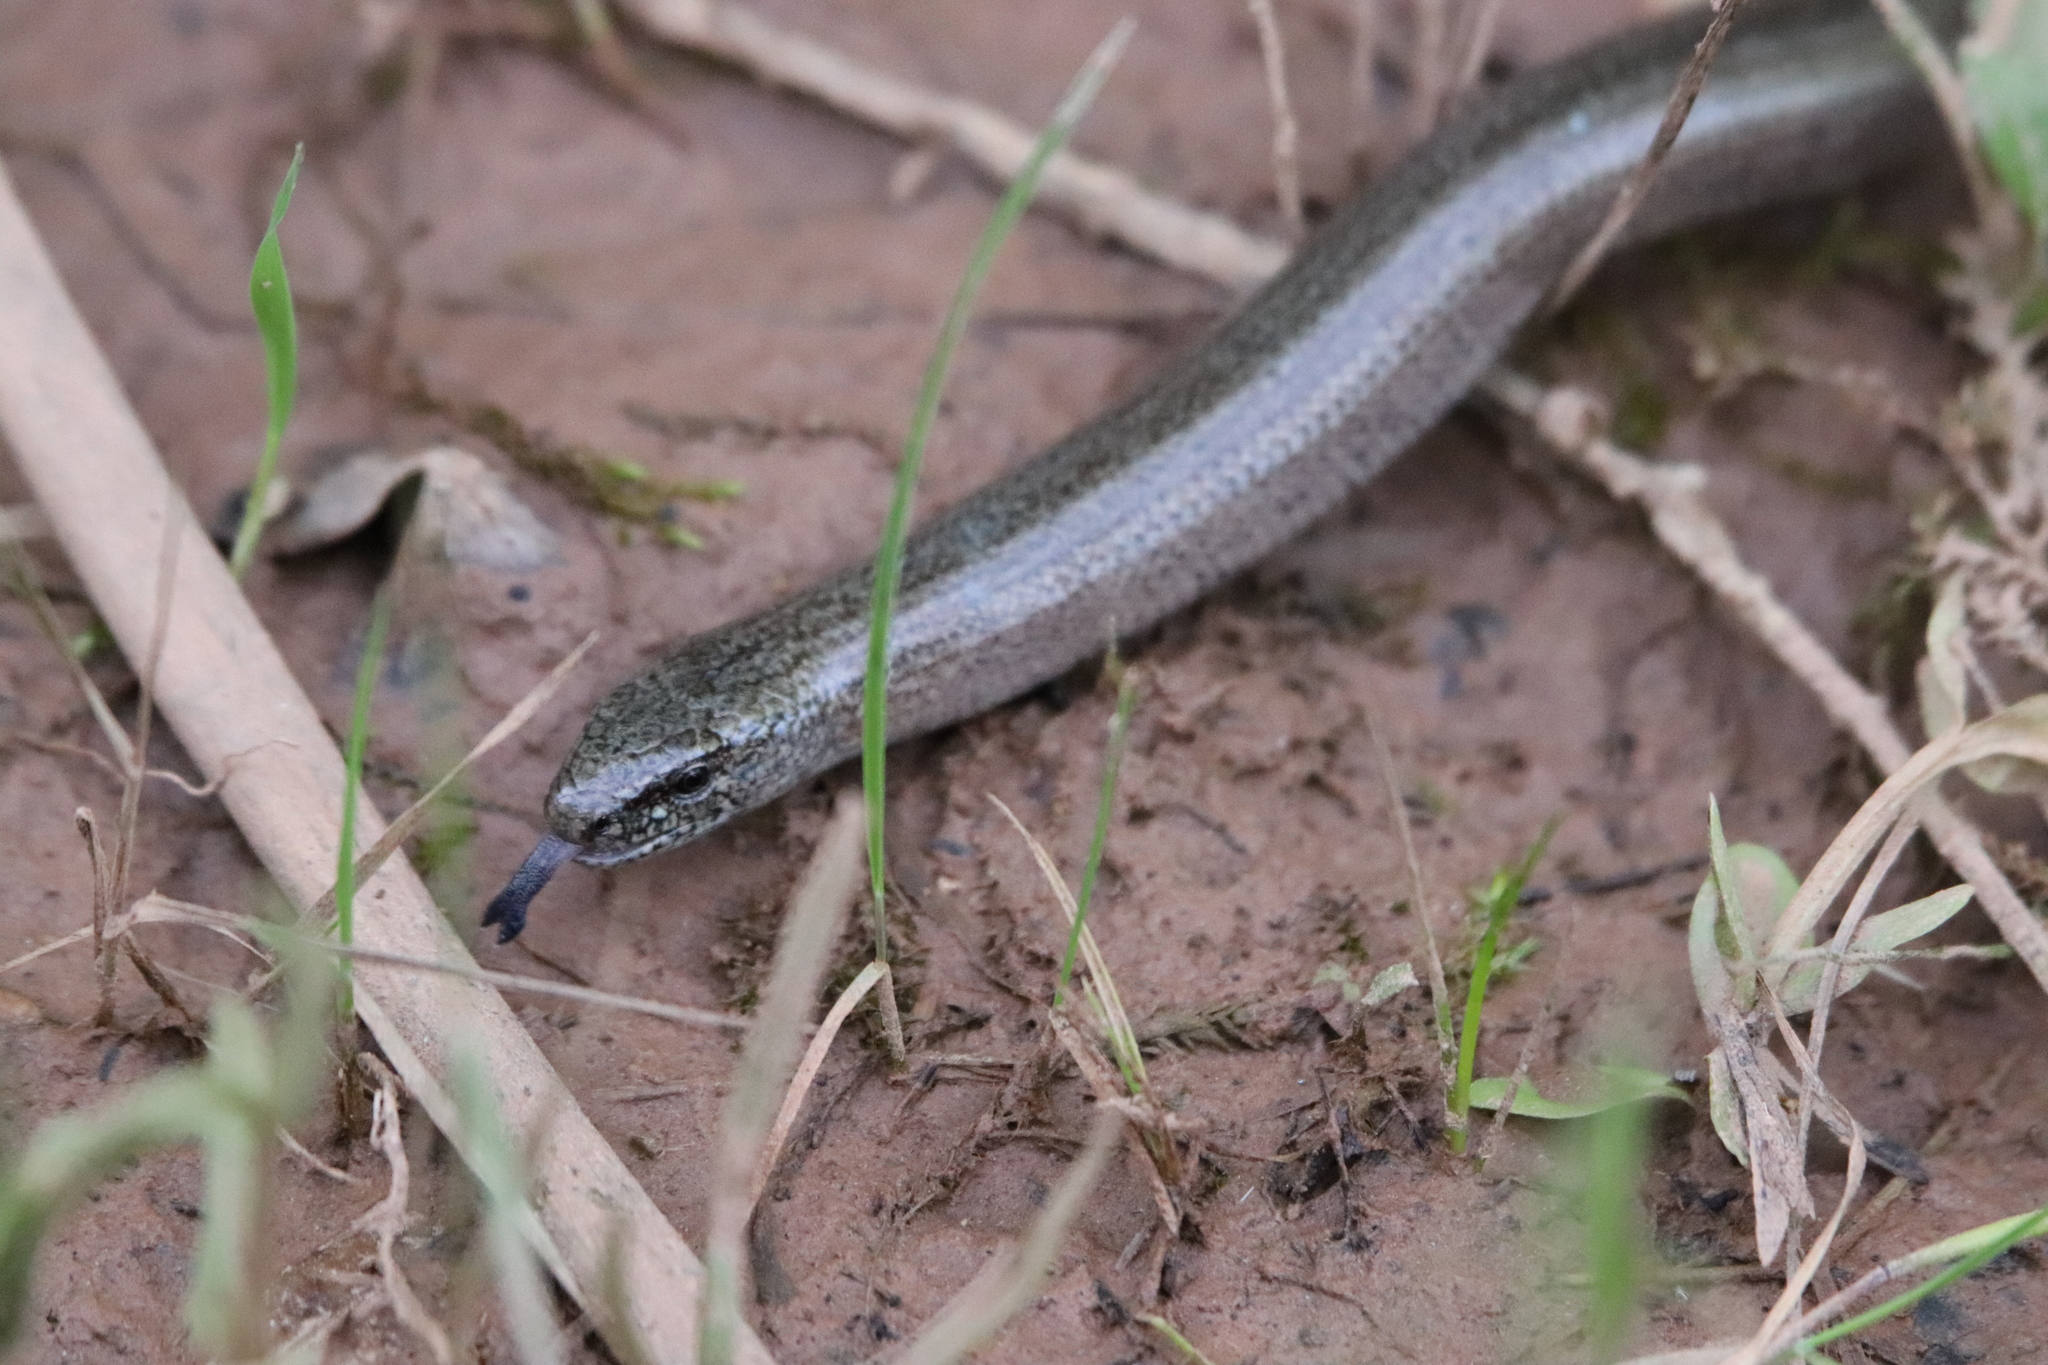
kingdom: Animalia
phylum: Chordata
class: Squamata
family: Anguidae
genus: Anguis
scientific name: Anguis fragilis
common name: Slow worm
